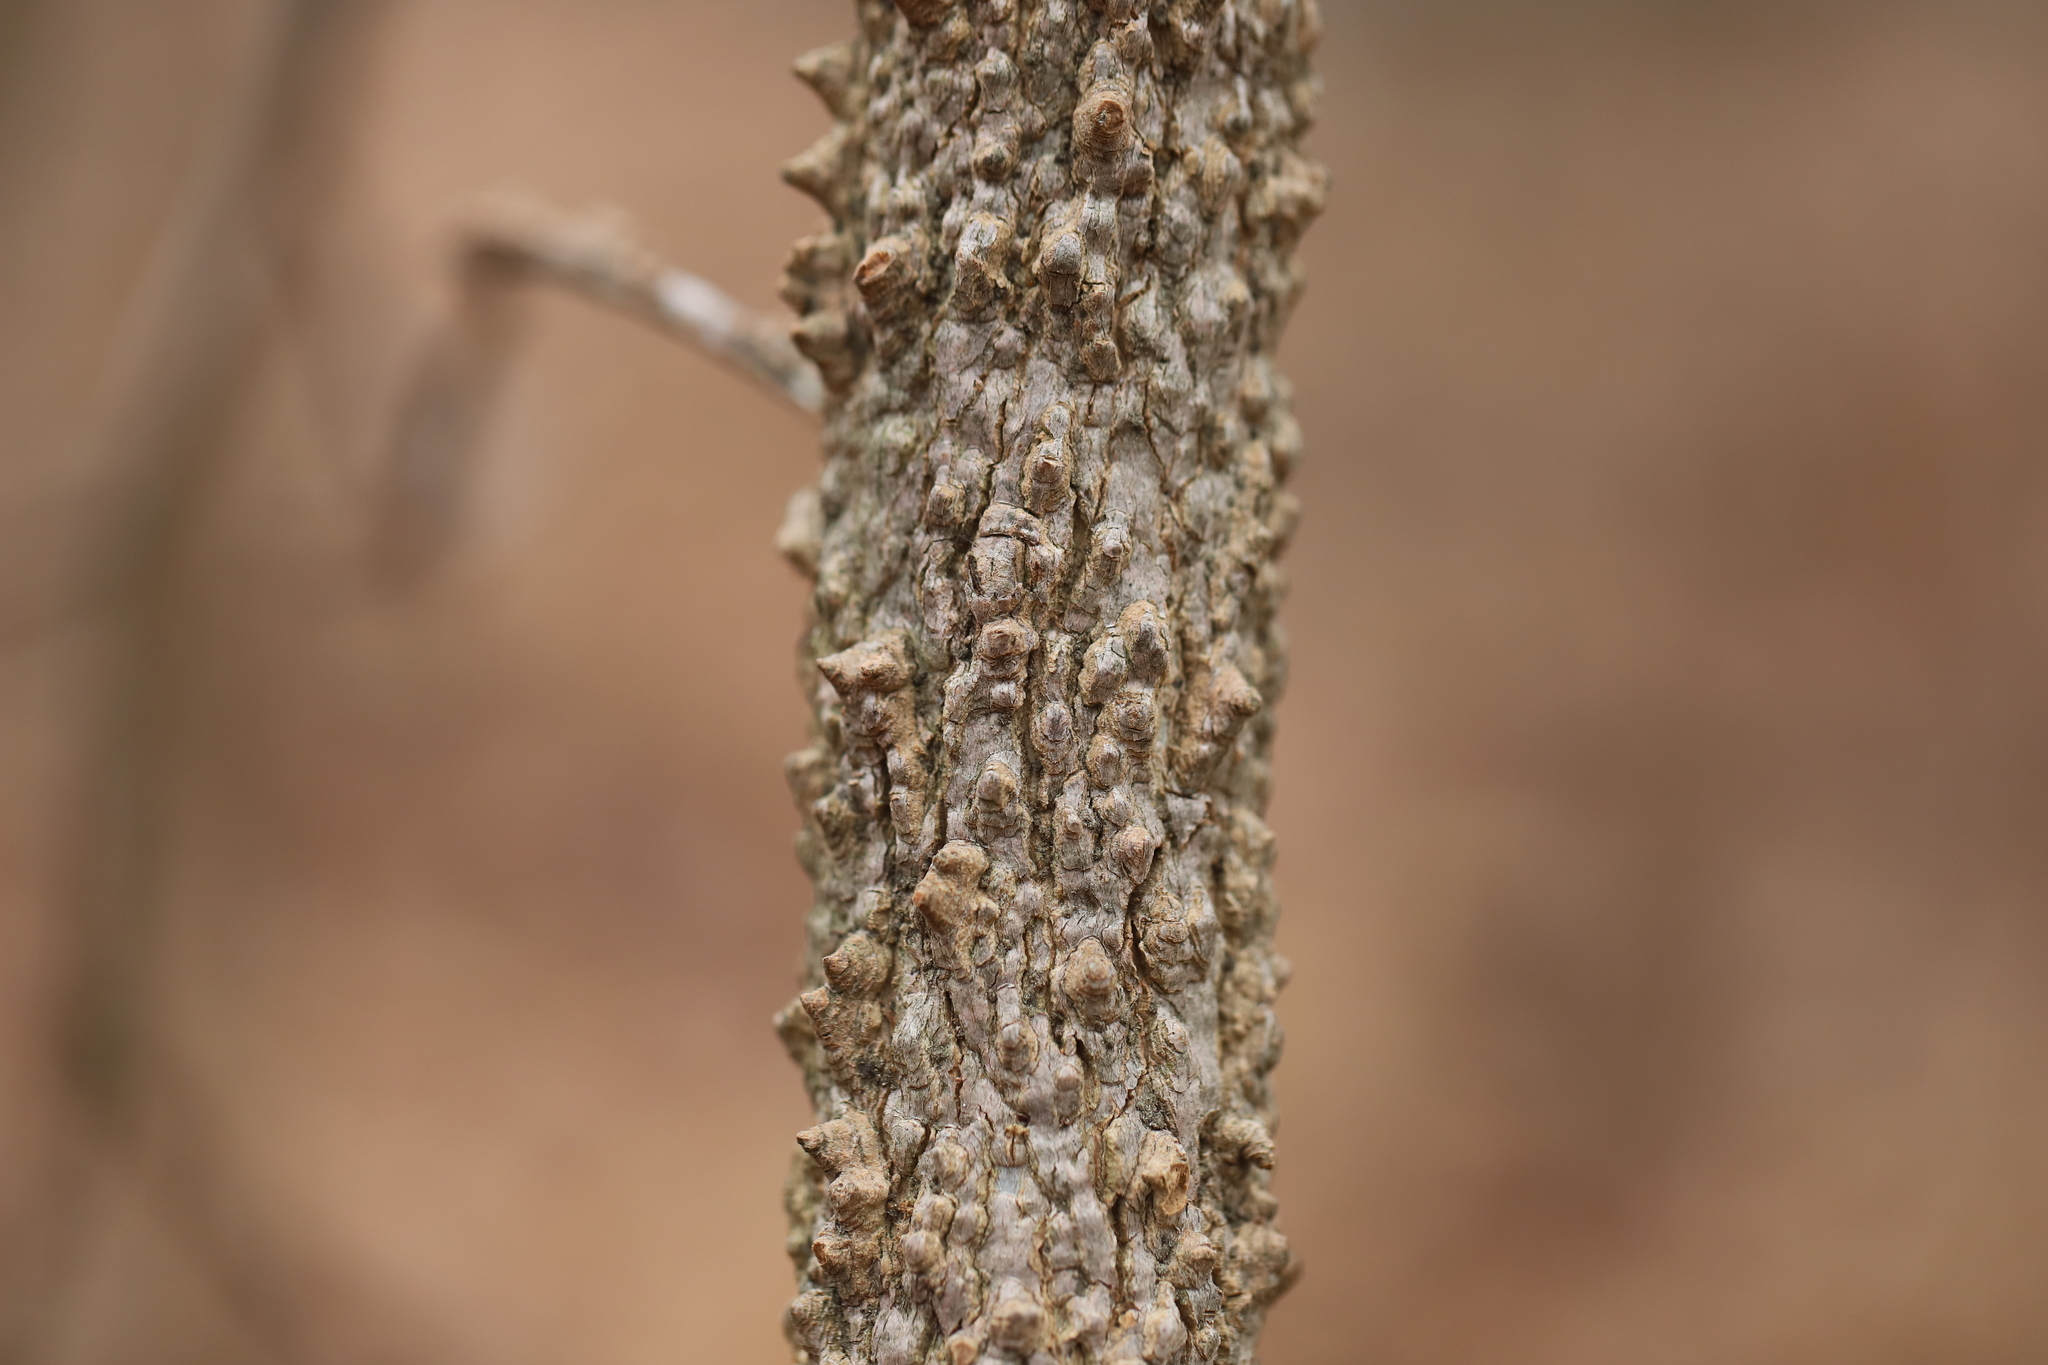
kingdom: Plantae
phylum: Tracheophyta
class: Magnoliopsida
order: Rosales
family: Cannabaceae
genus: Celtis
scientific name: Celtis occidentalis
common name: Common hackberry
